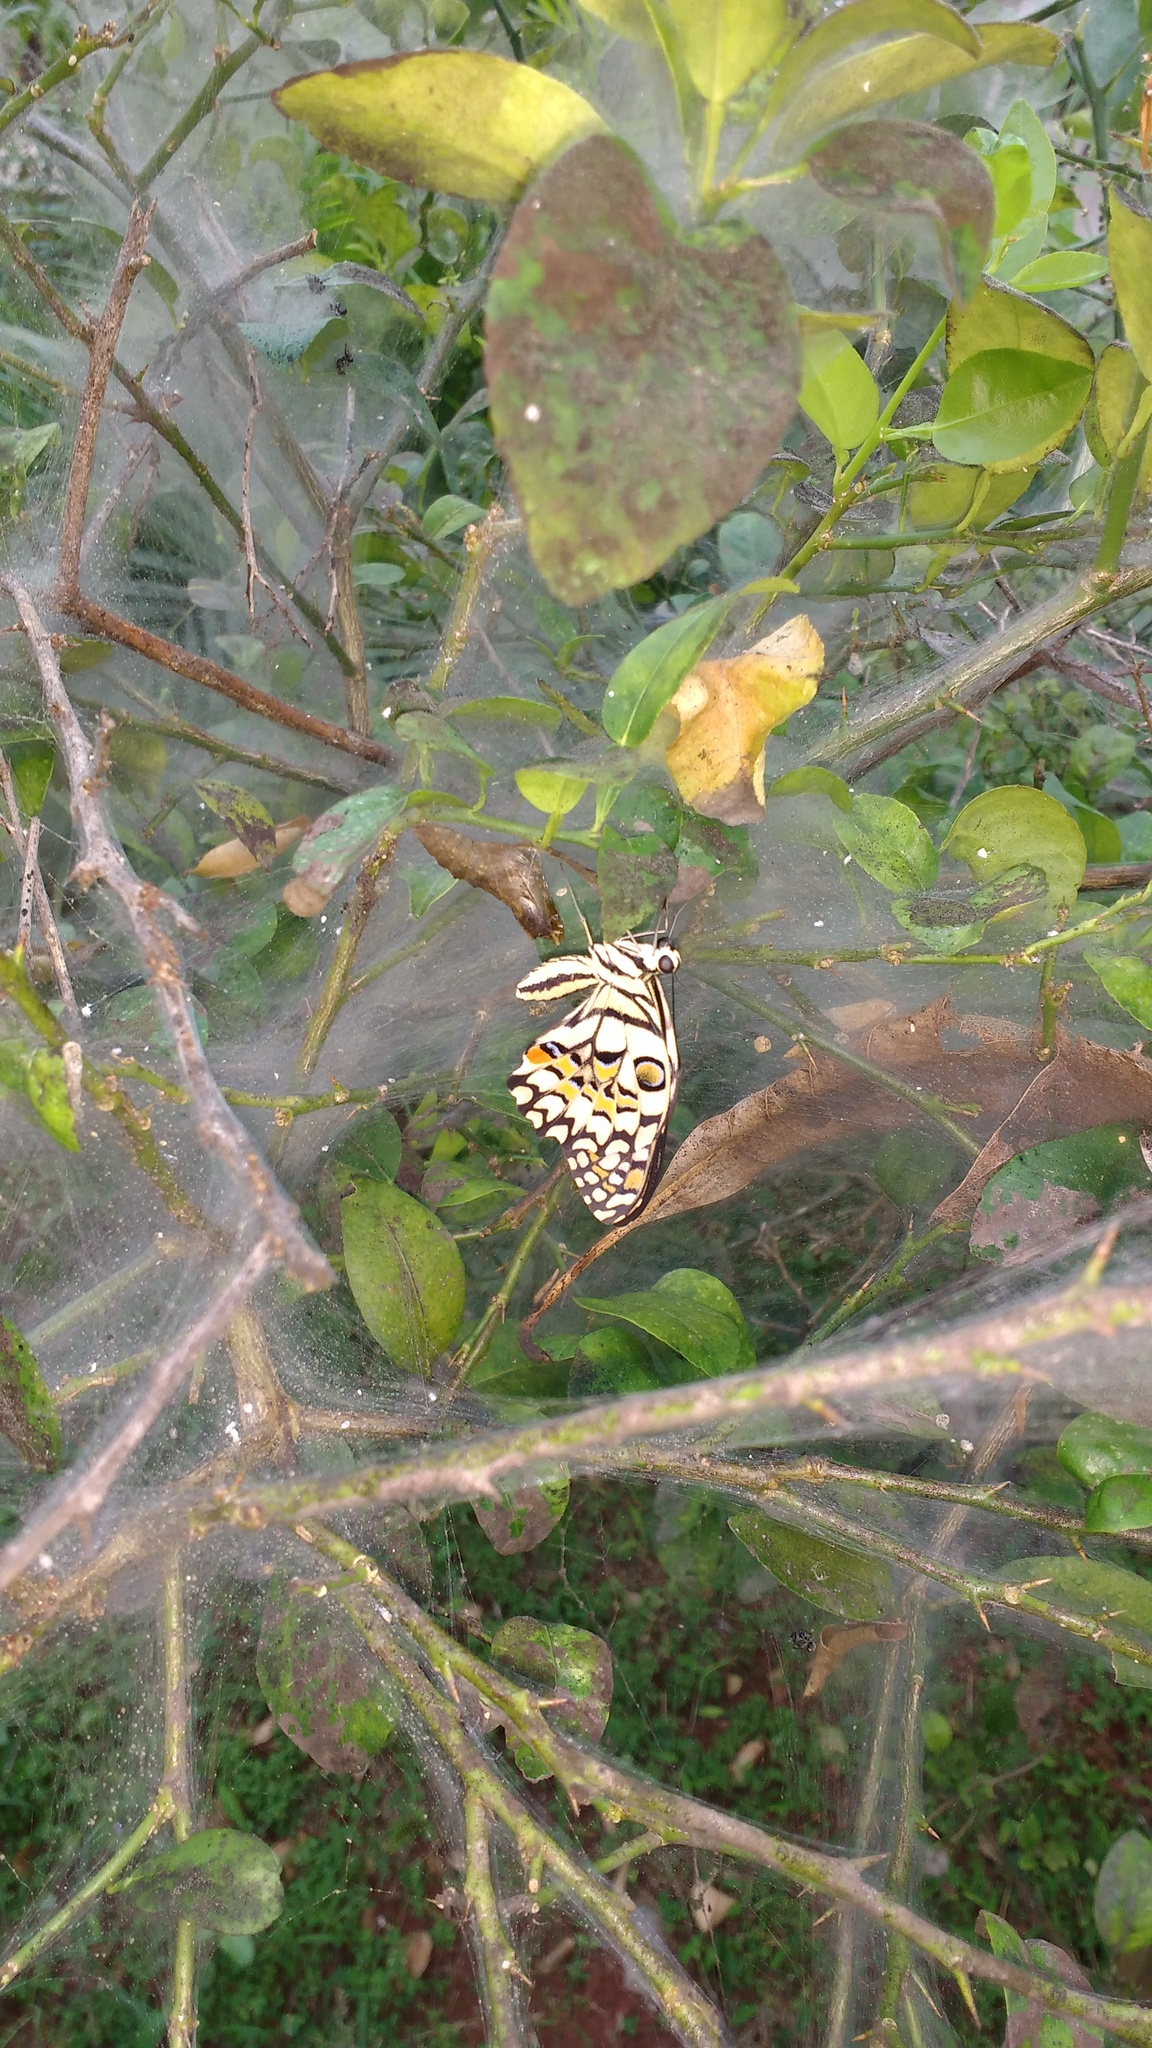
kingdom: Animalia
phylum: Arthropoda
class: Insecta
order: Lepidoptera
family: Papilionidae
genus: Papilio
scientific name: Papilio demoleus
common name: Lime butterfly
